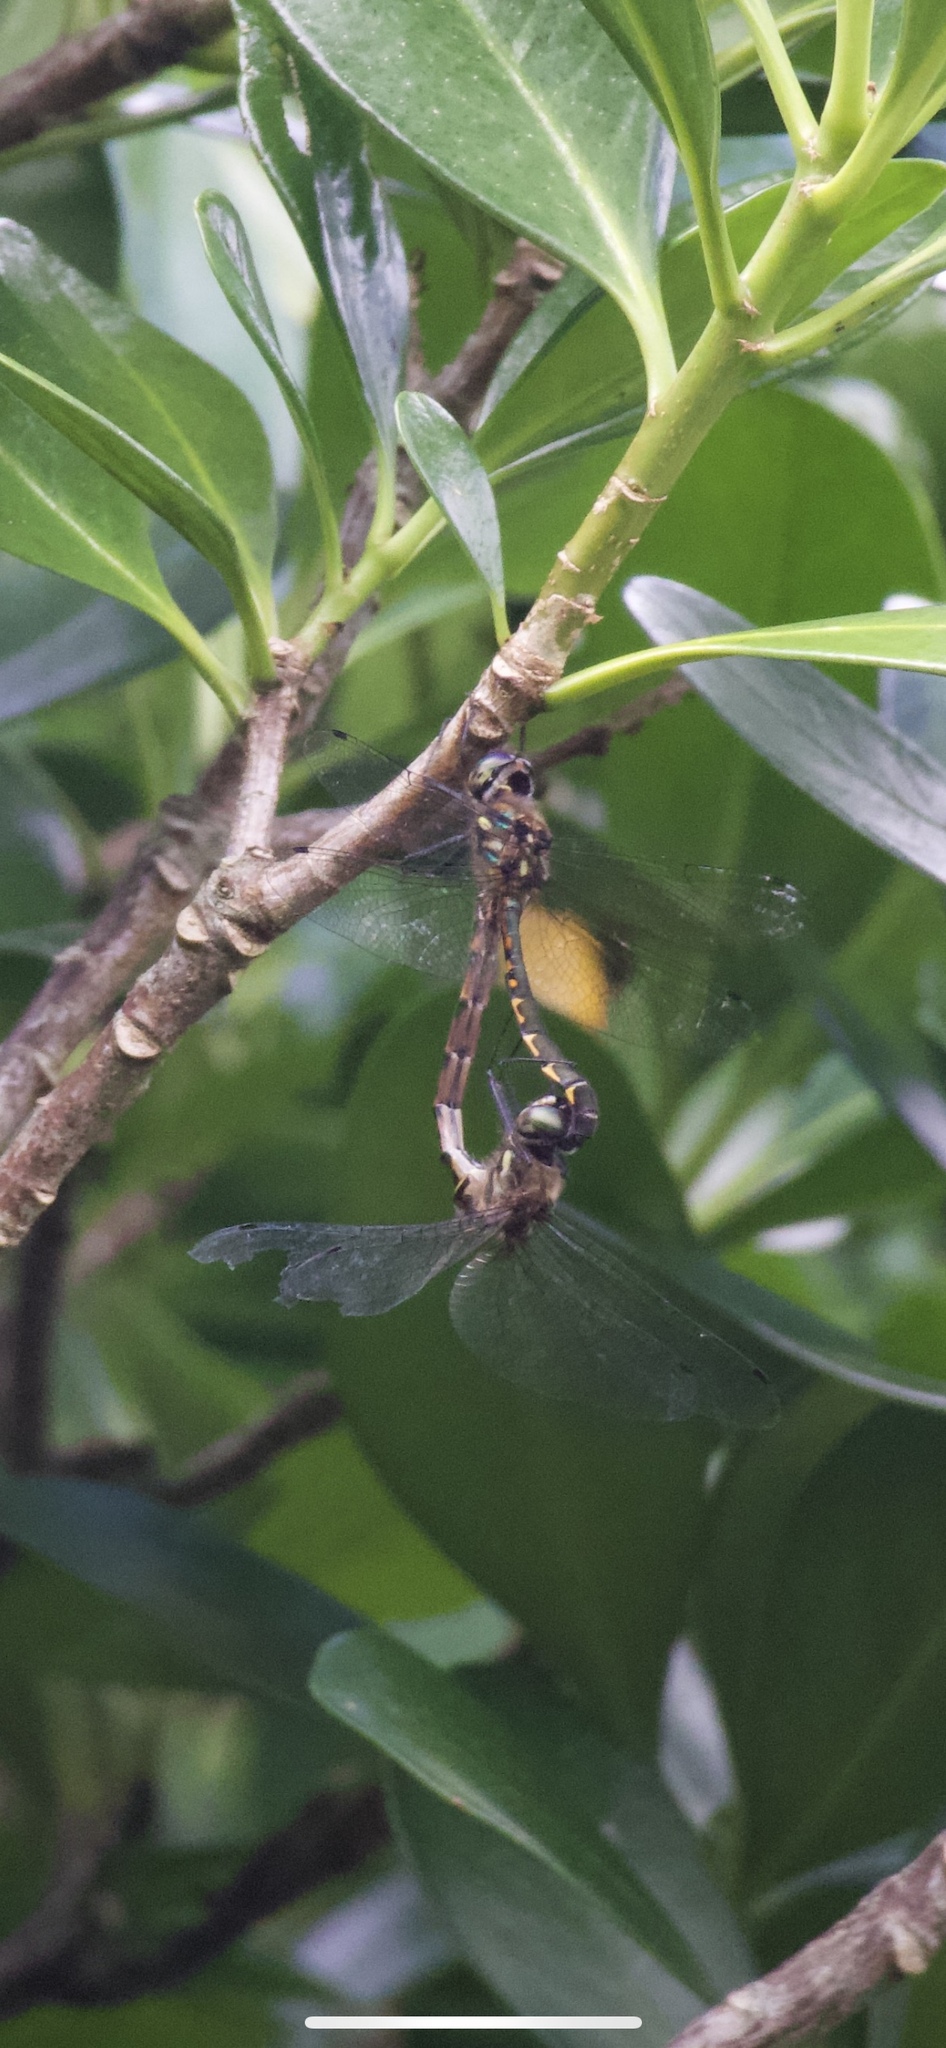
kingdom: Animalia
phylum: Arthropoda
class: Insecta
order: Odonata
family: Corduliidae
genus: Hemicordulia
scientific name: Hemicordulia armstrongi
